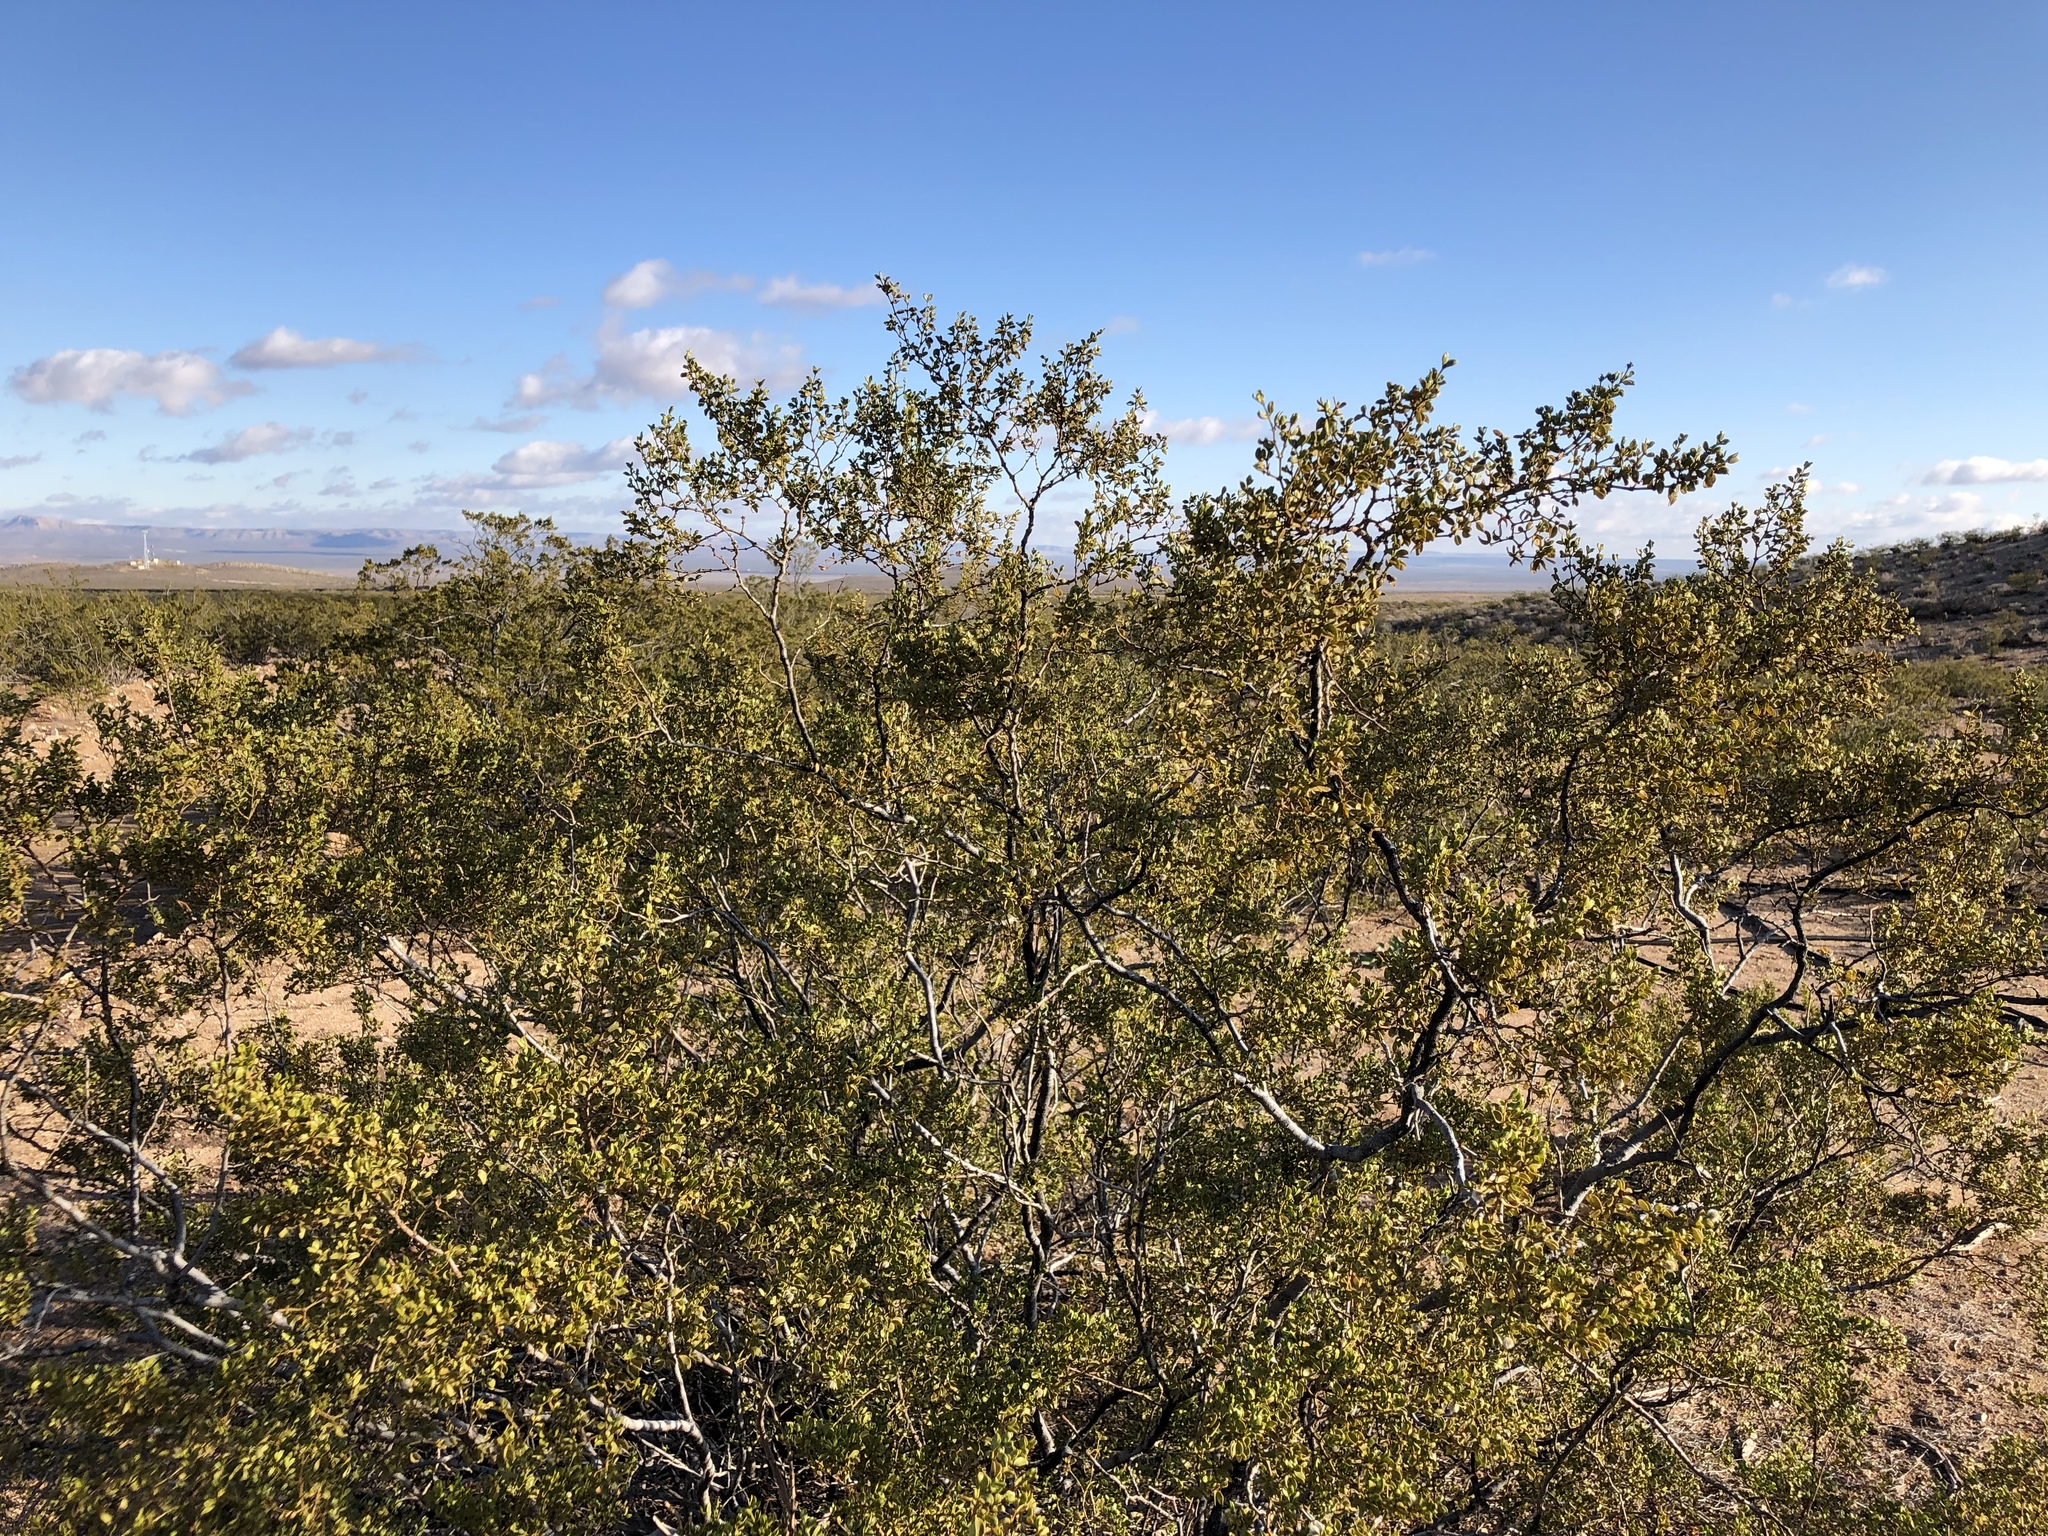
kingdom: Plantae
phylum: Tracheophyta
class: Magnoliopsida
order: Zygophyllales
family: Zygophyllaceae
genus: Larrea
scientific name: Larrea tridentata
